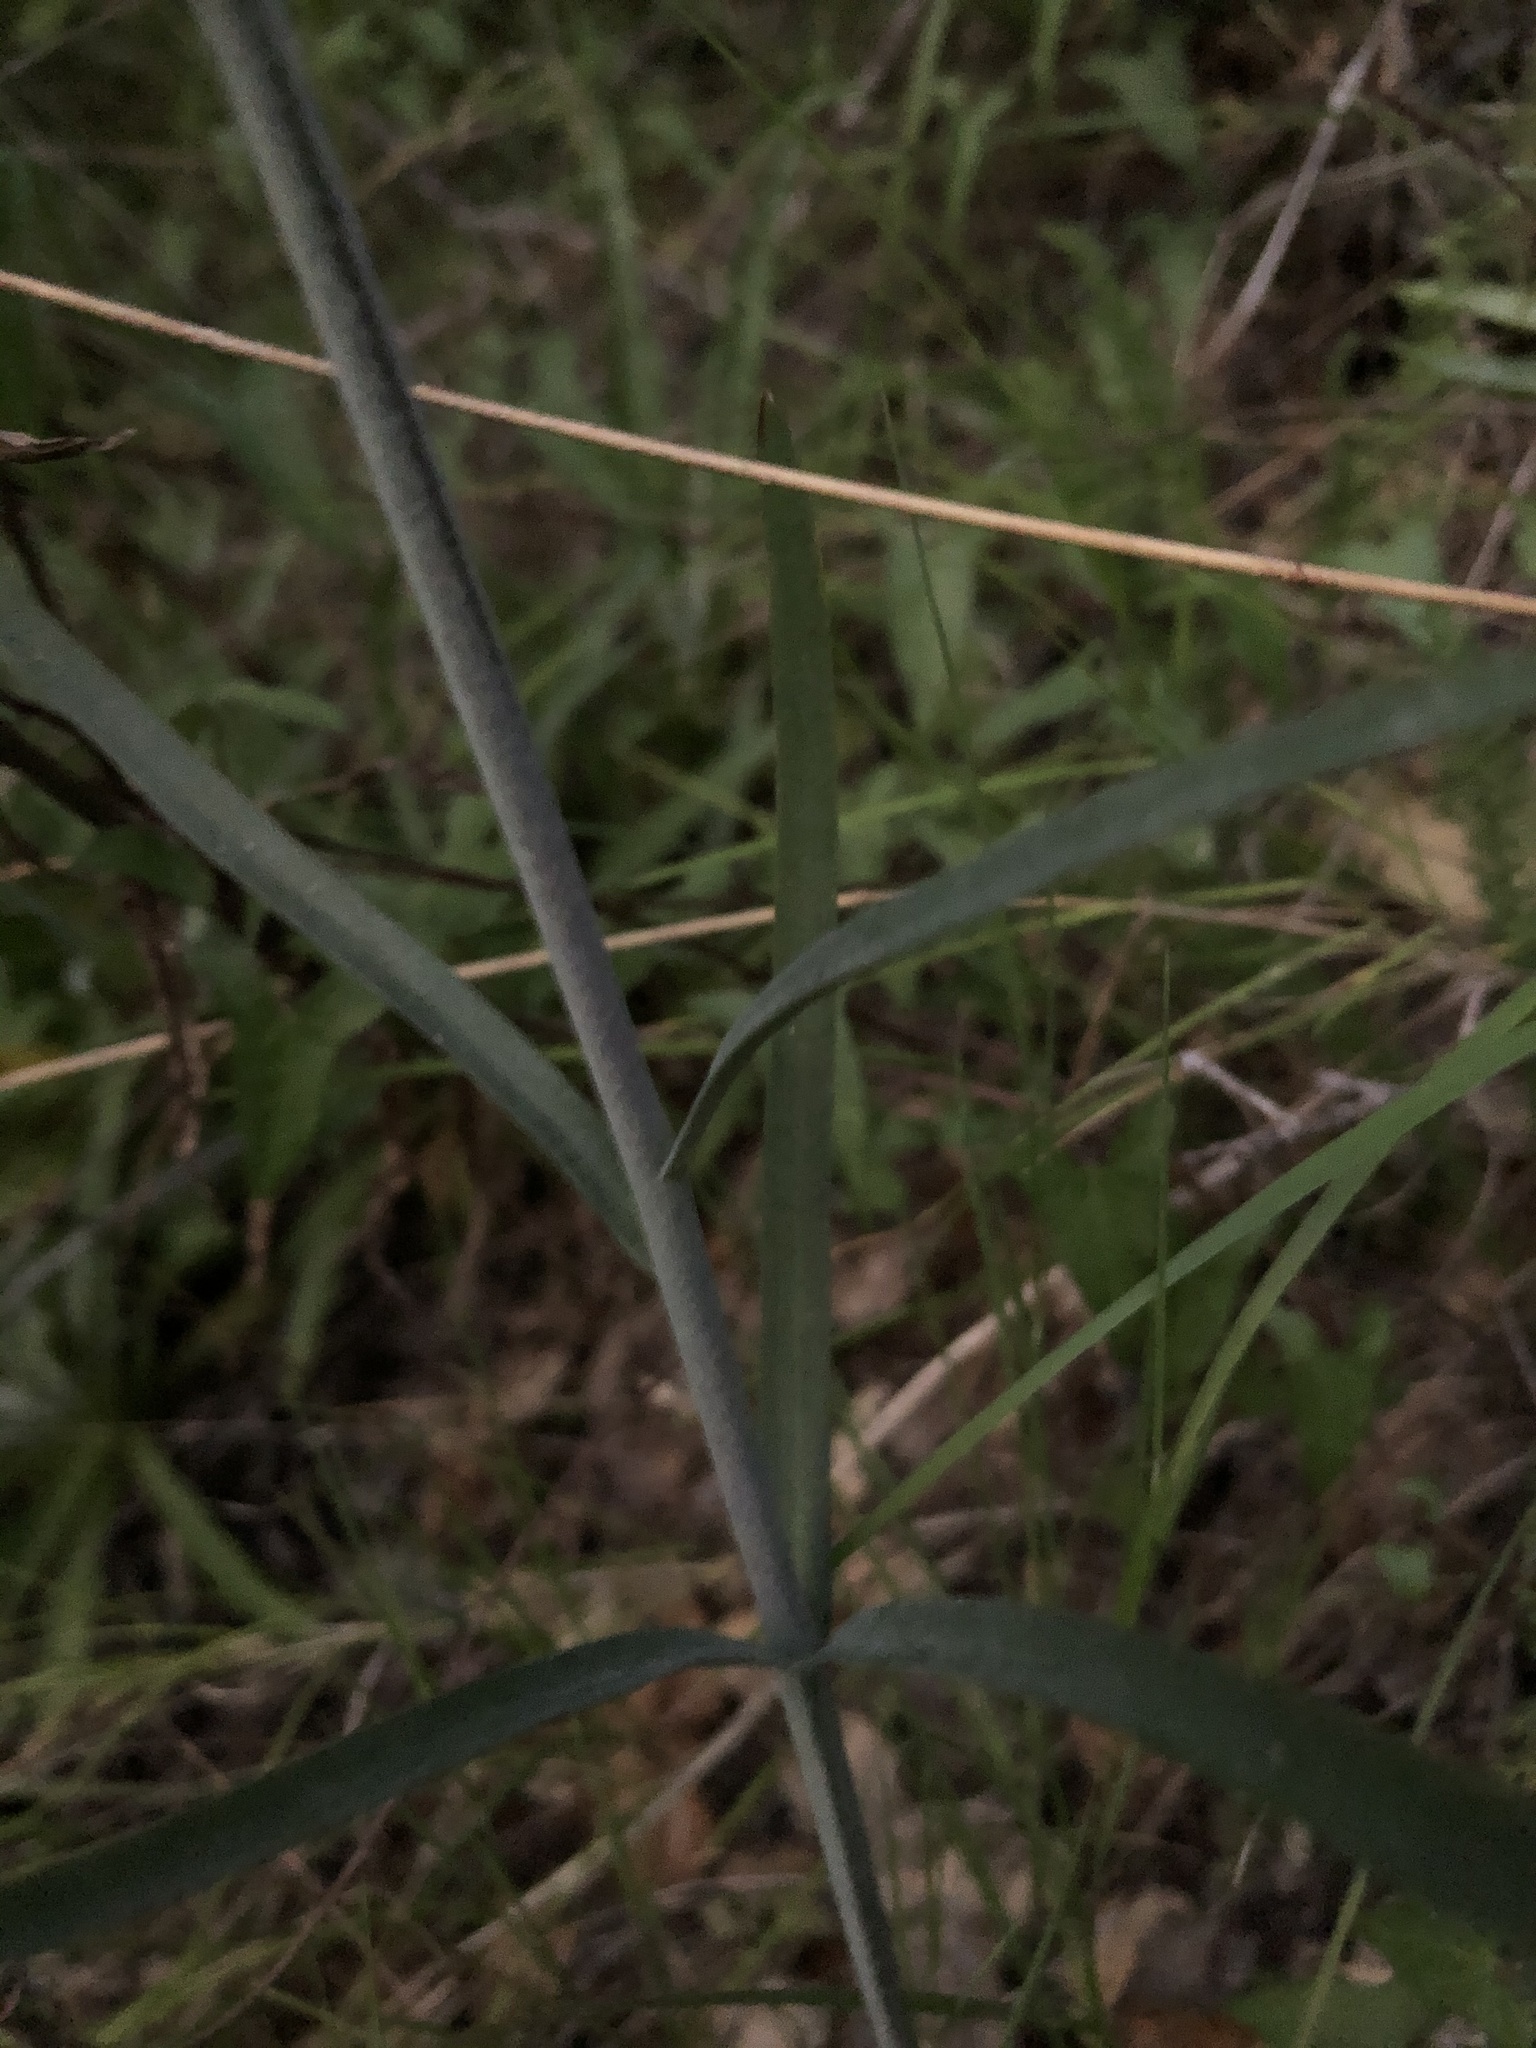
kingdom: Plantae
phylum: Tracheophyta
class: Liliopsida
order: Liliales
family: Liliaceae
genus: Fritillaria
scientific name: Fritillaria ojaiensis
